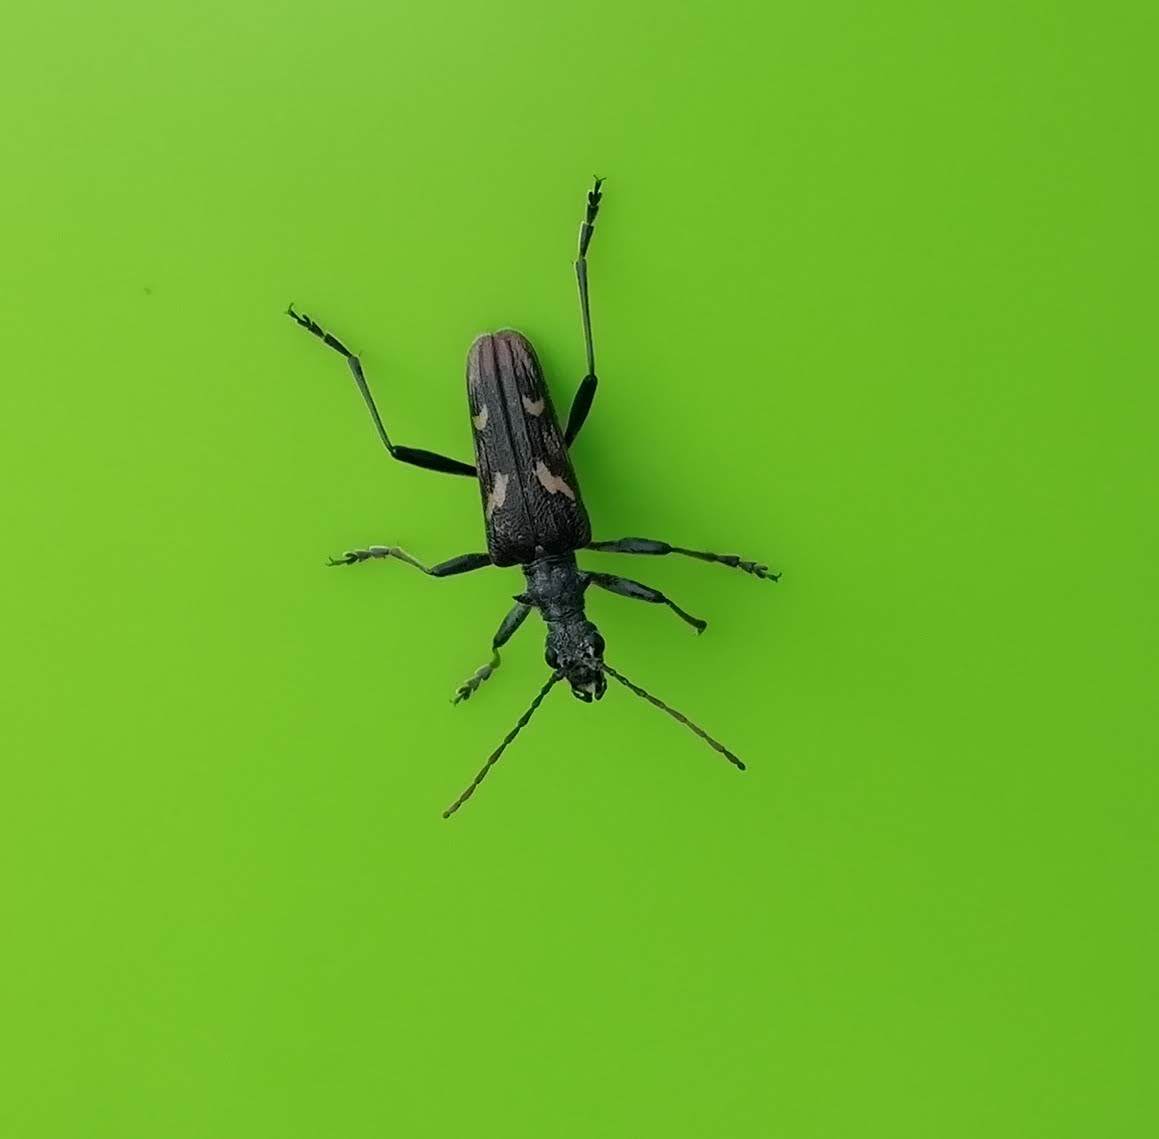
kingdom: Animalia
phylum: Arthropoda
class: Insecta
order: Coleoptera
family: Cerambycidae
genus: Rhagium
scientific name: Rhagium bifasciatum
